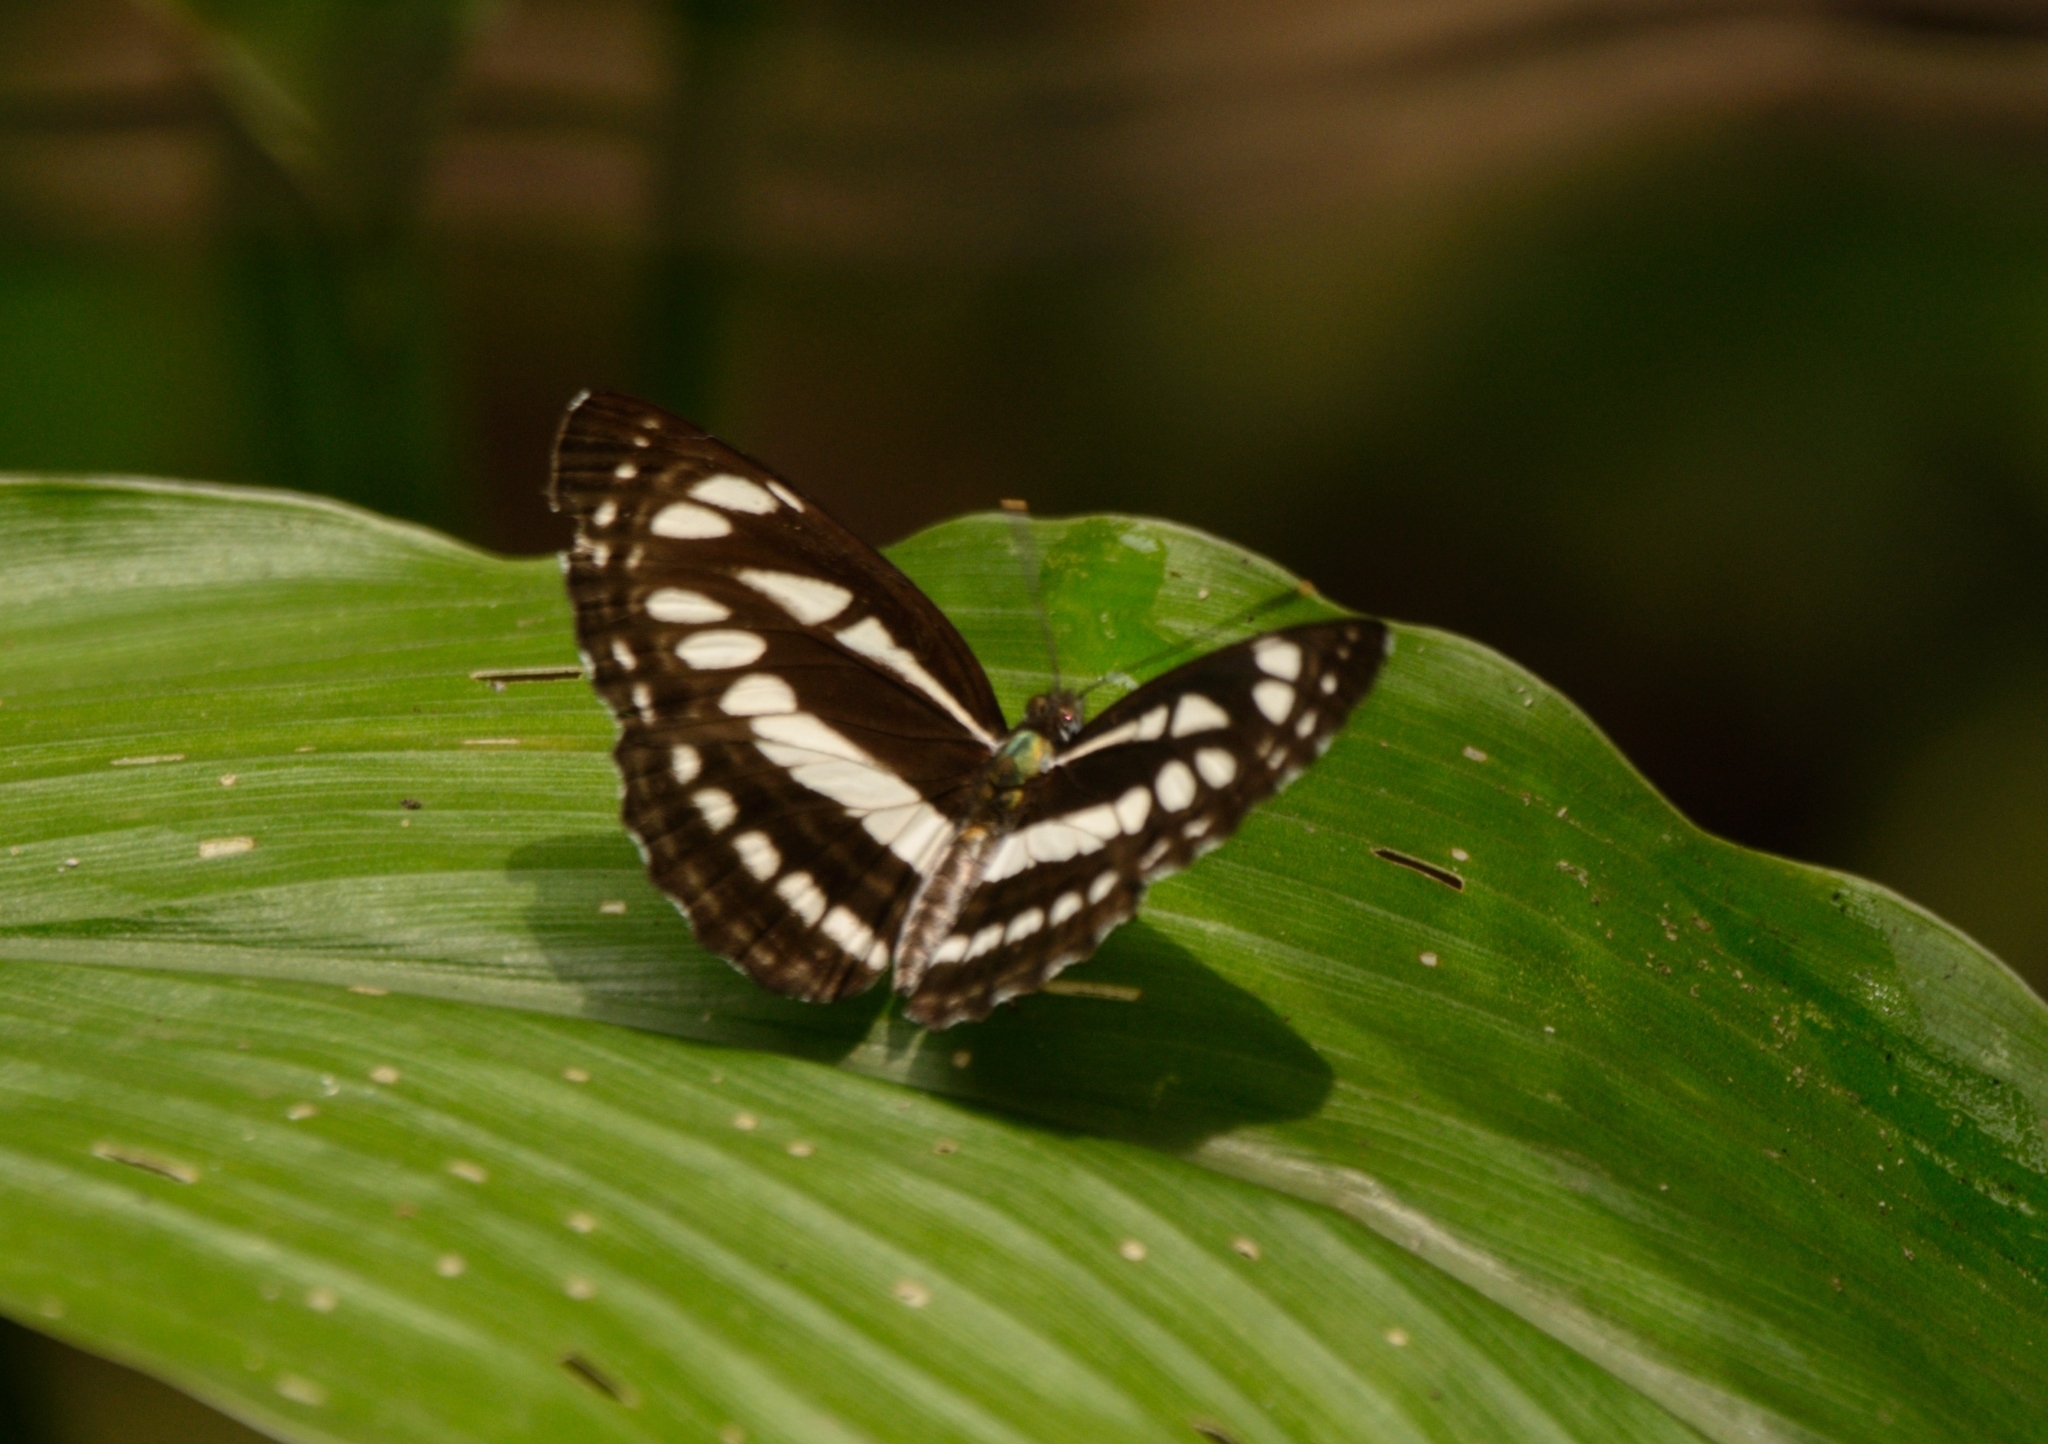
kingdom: Animalia
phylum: Arthropoda
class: Insecta
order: Lepidoptera
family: Nymphalidae
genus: Neptis
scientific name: Neptis hylas
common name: Common sailer
